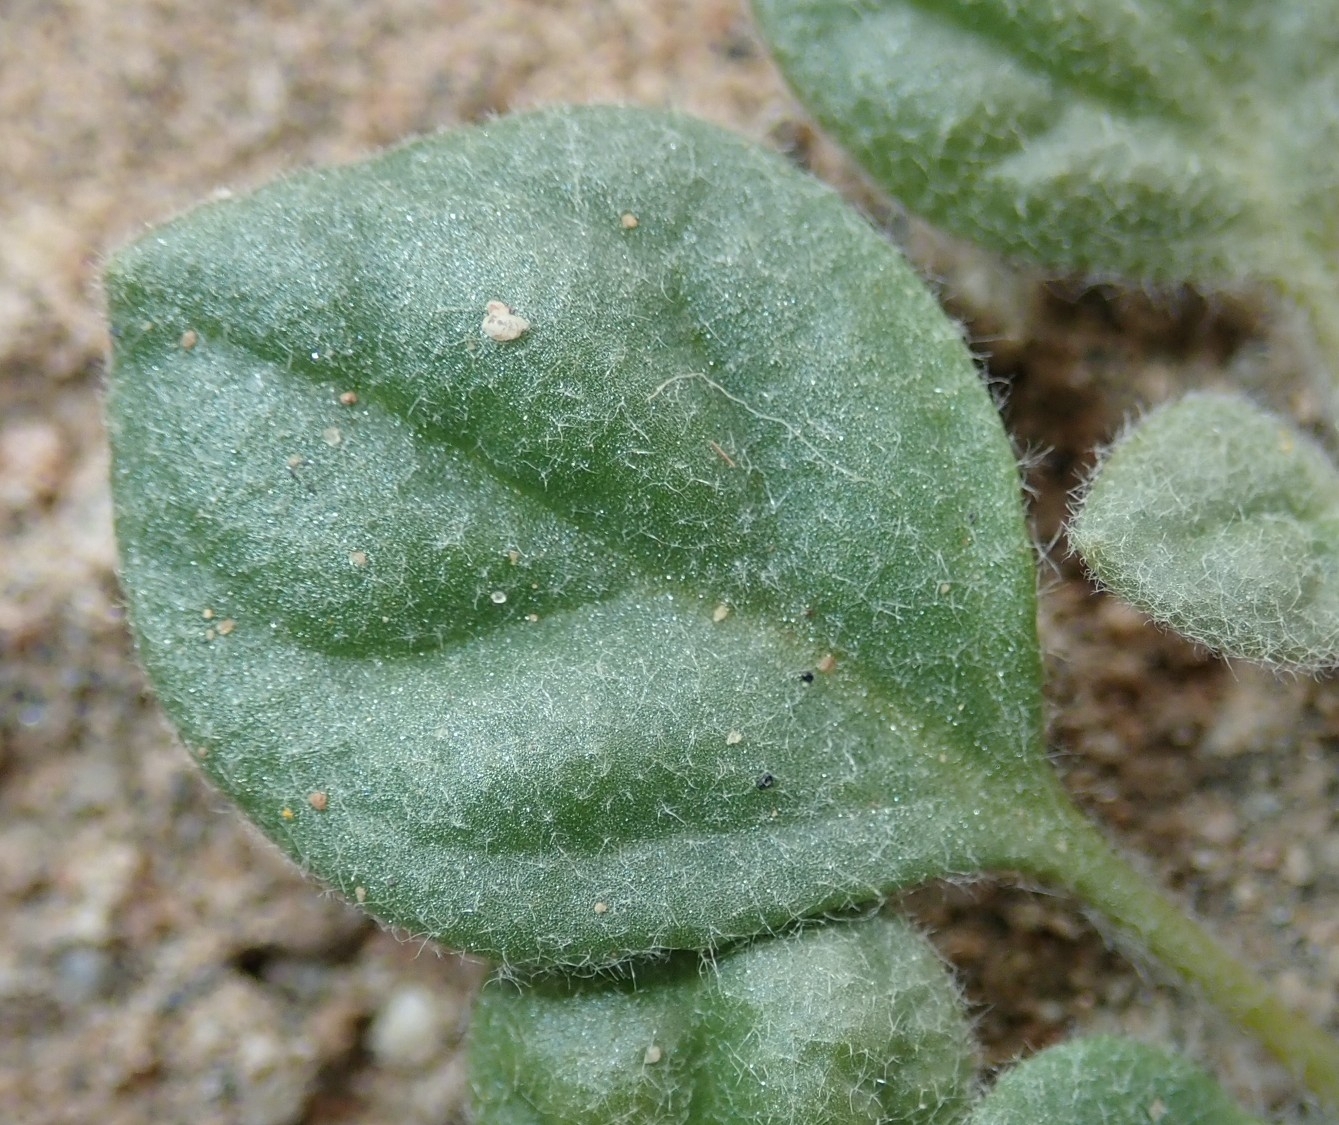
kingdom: Plantae
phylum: Tracheophyta
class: Magnoliopsida
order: Caryophyllales
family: Molluginaceae
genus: Glinus
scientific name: Glinus lotoides
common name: Lotus sweetjuice
